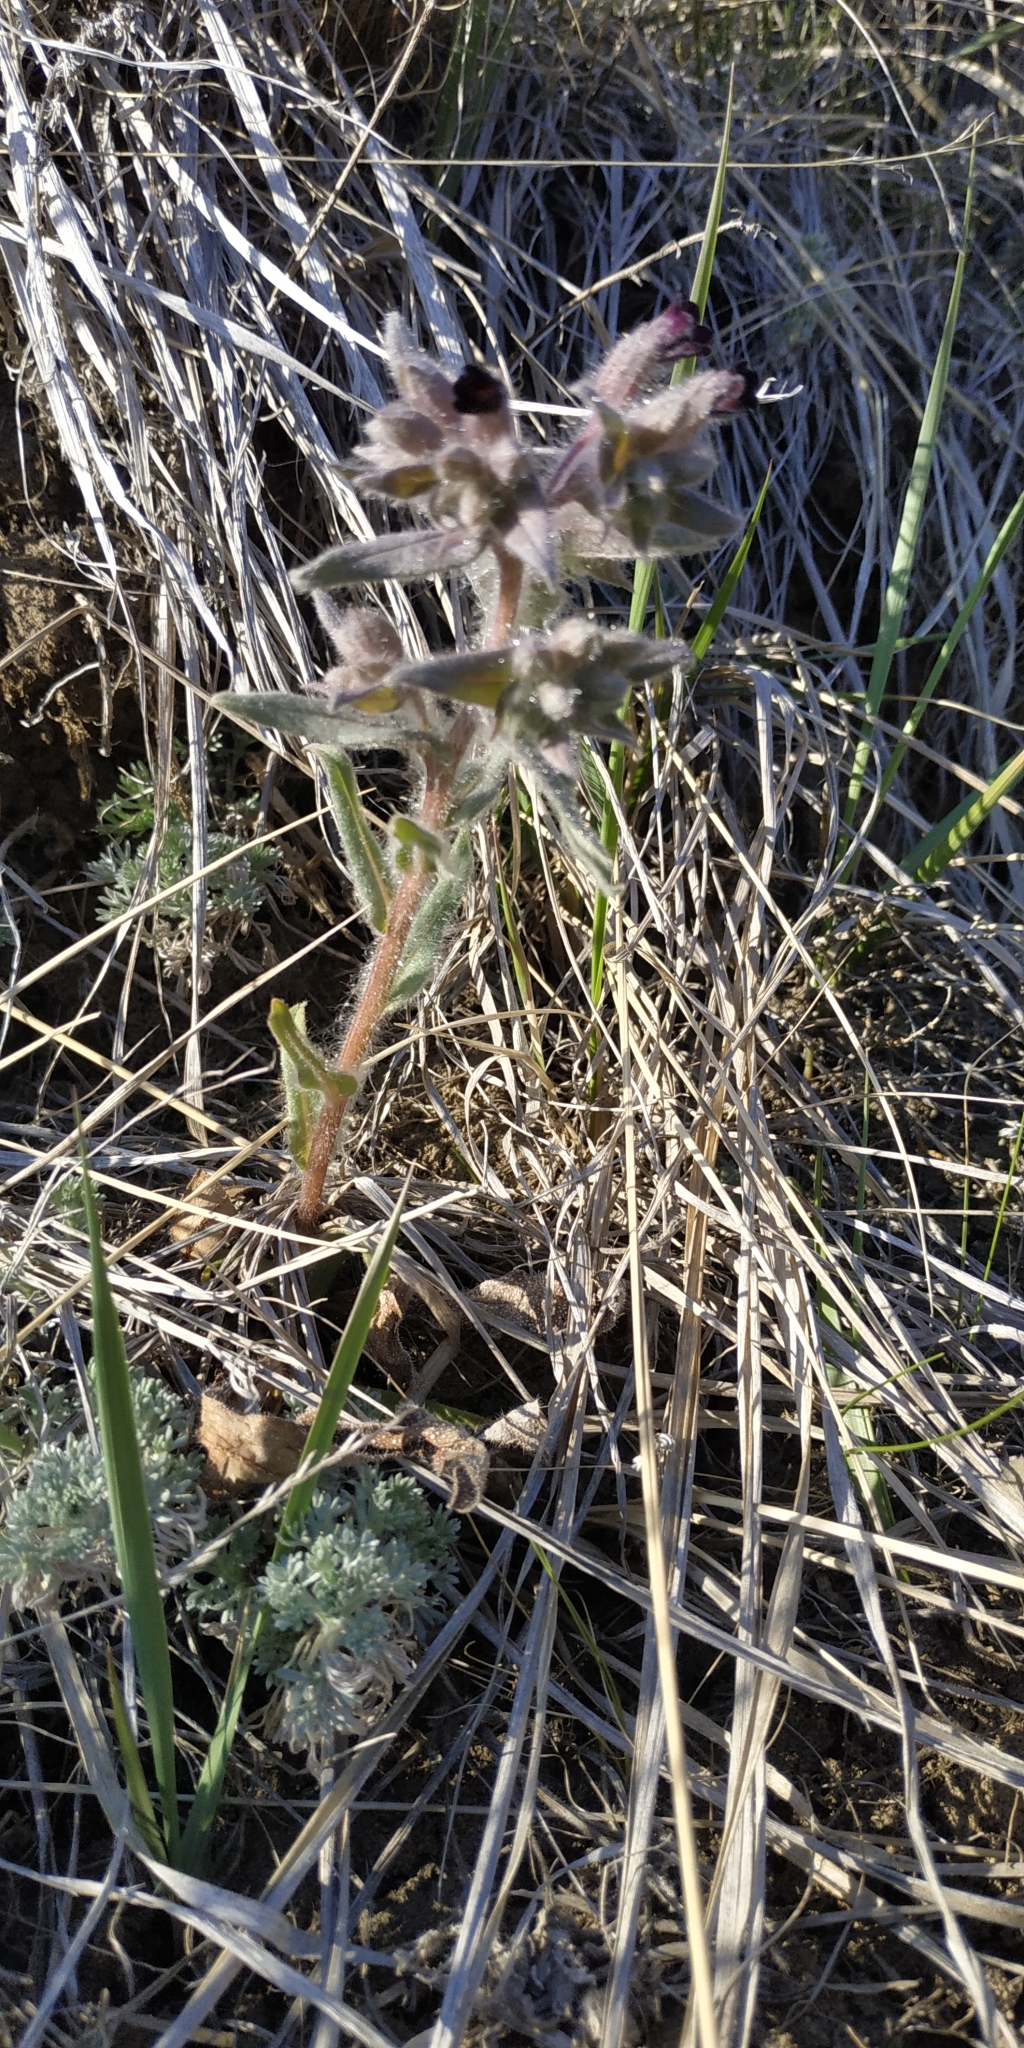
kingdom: Plantae
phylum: Tracheophyta
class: Magnoliopsida
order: Boraginales
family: Boraginaceae
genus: Nonea
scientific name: Nonea pulla
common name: Brown nonea
